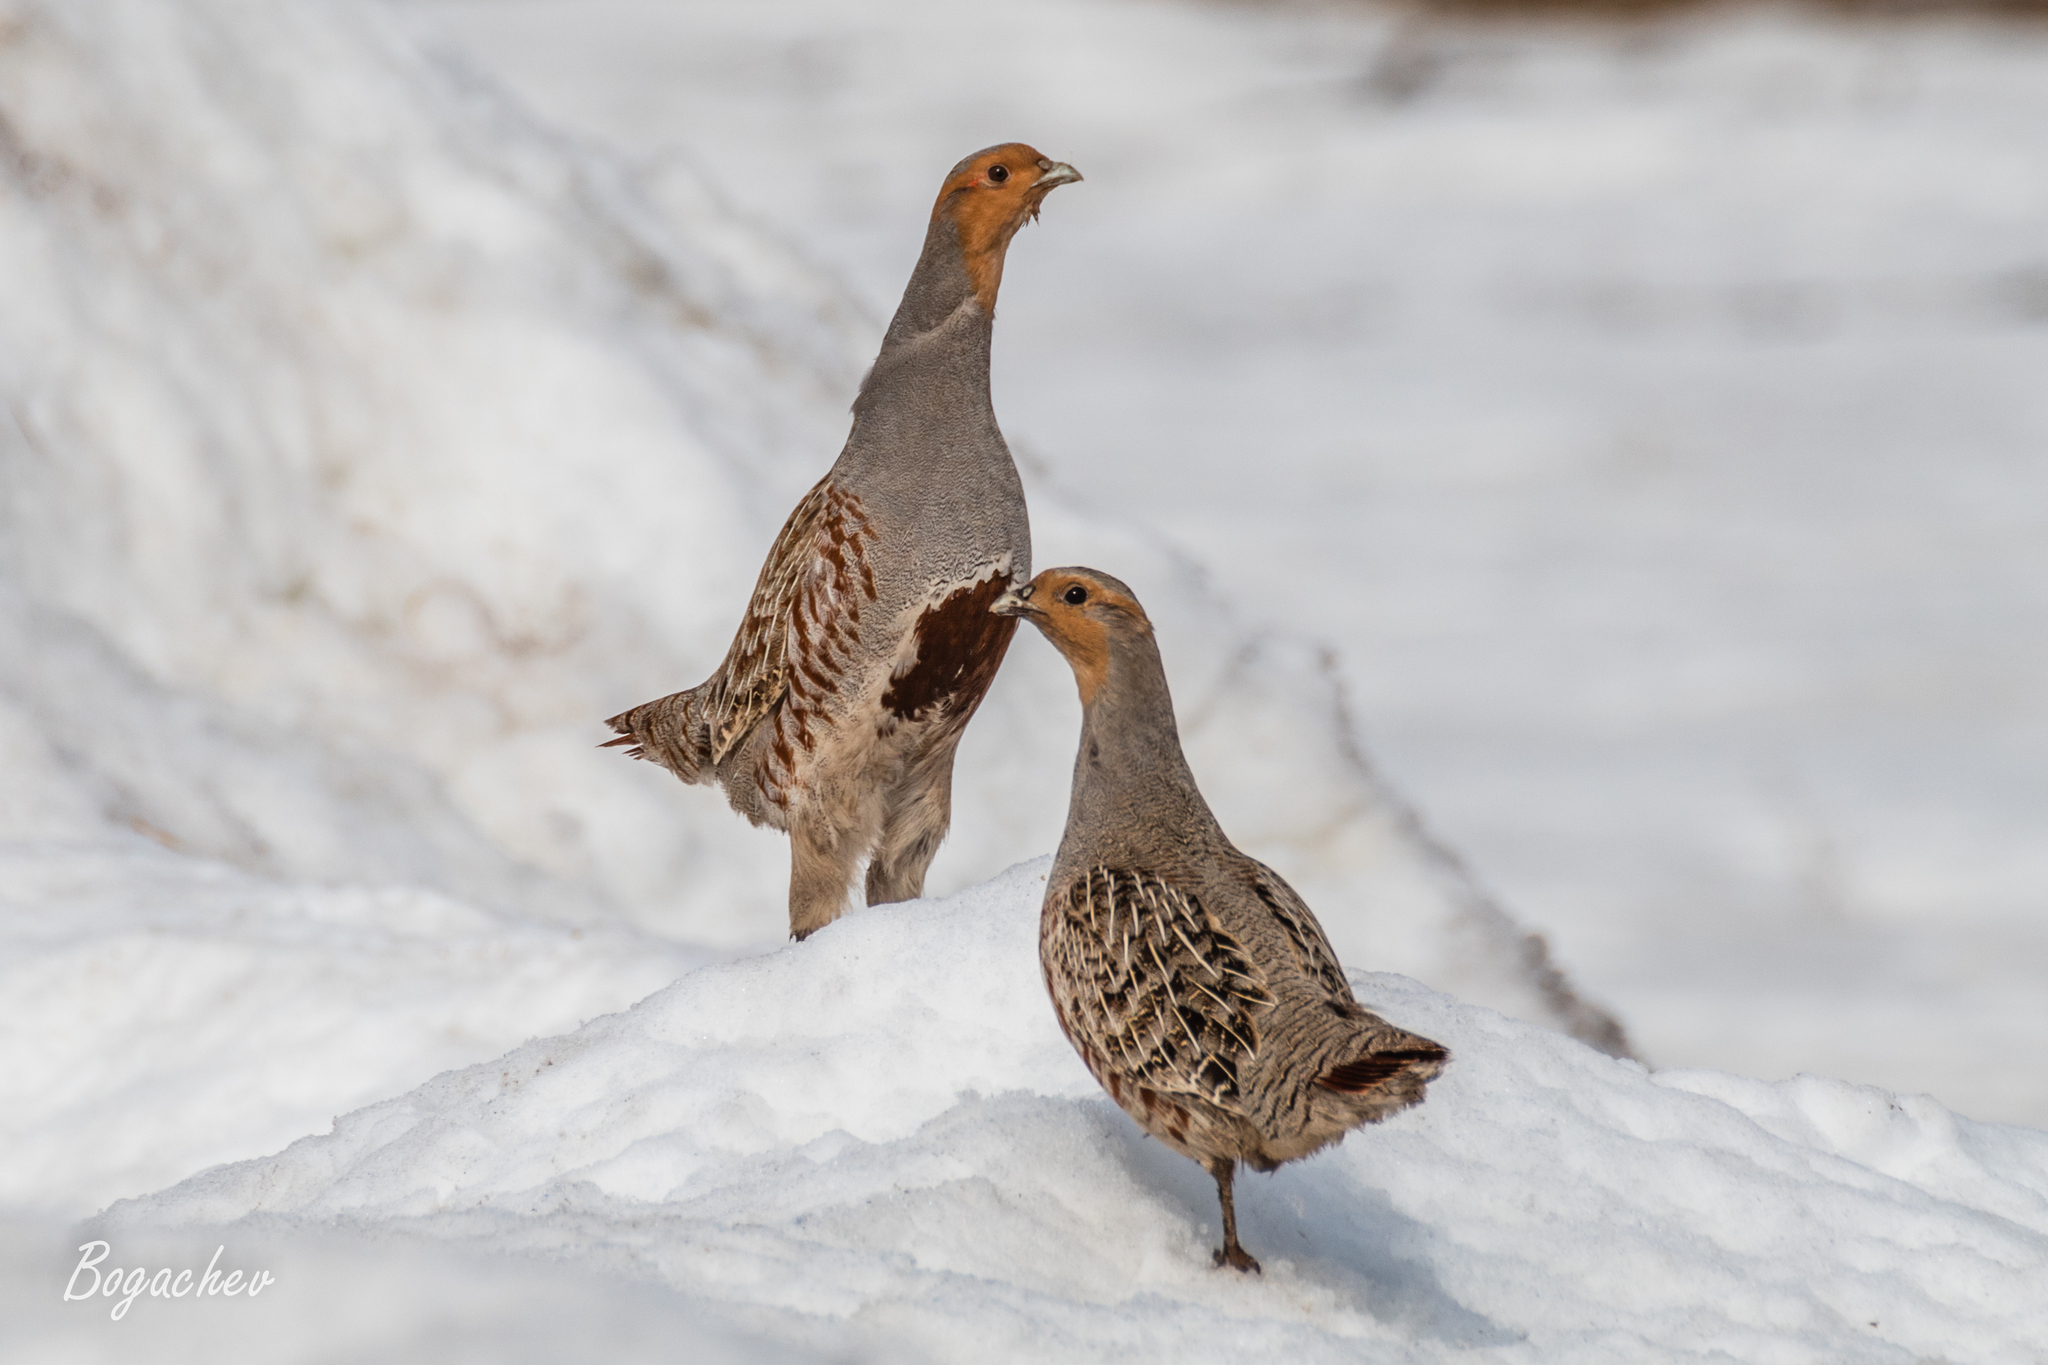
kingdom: Animalia
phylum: Chordata
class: Aves
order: Galliformes
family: Phasianidae
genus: Perdix
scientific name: Perdix perdix
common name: Grey partridge
